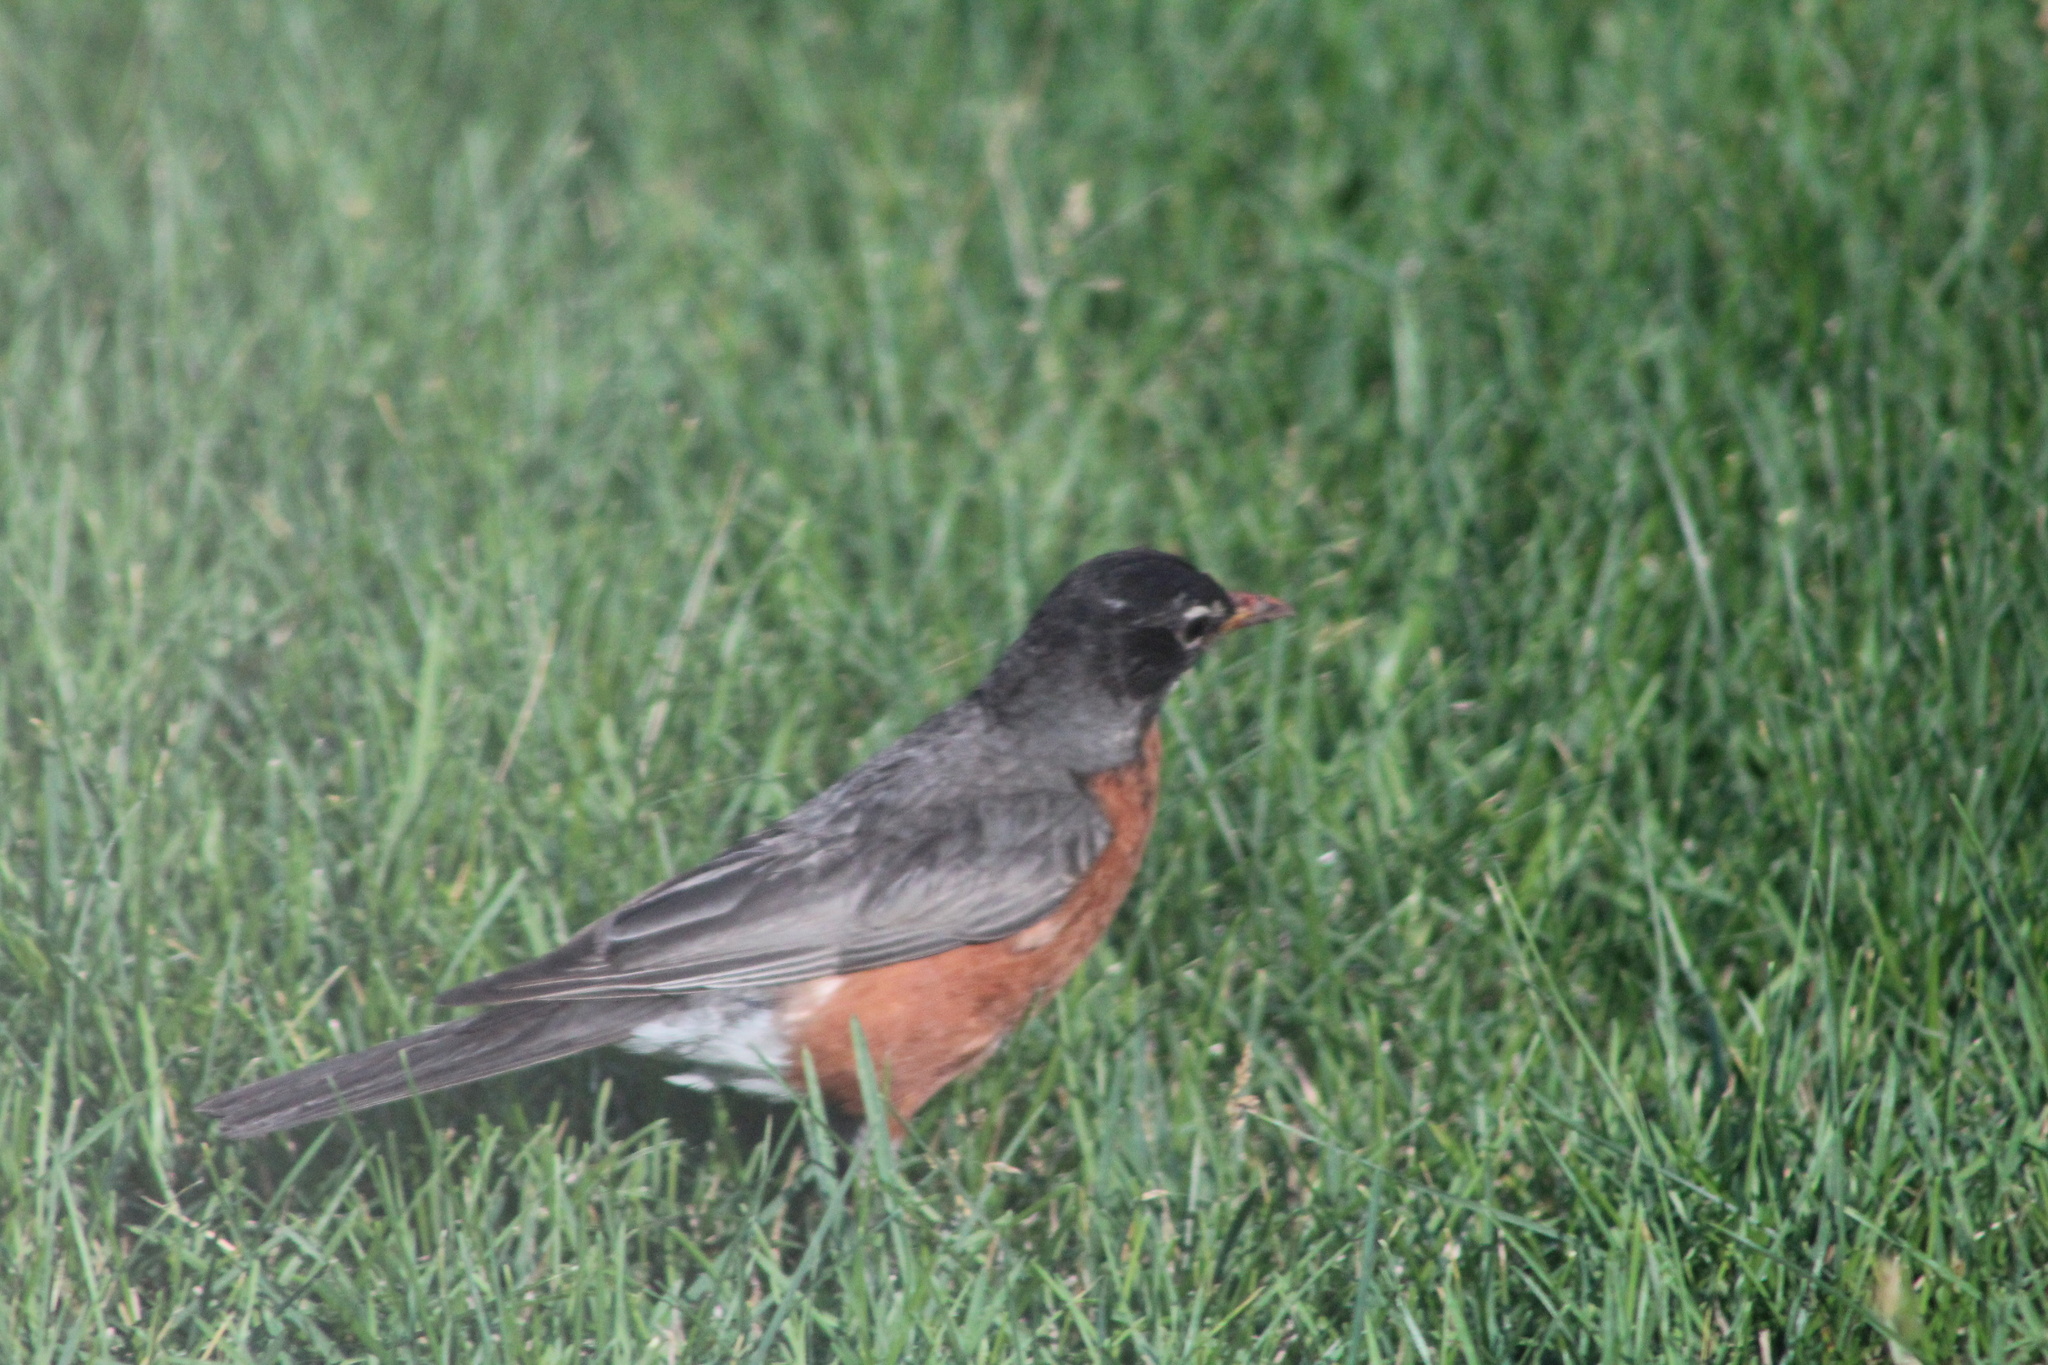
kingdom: Animalia
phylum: Chordata
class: Aves
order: Passeriformes
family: Turdidae
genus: Turdus
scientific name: Turdus migratorius
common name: American robin
